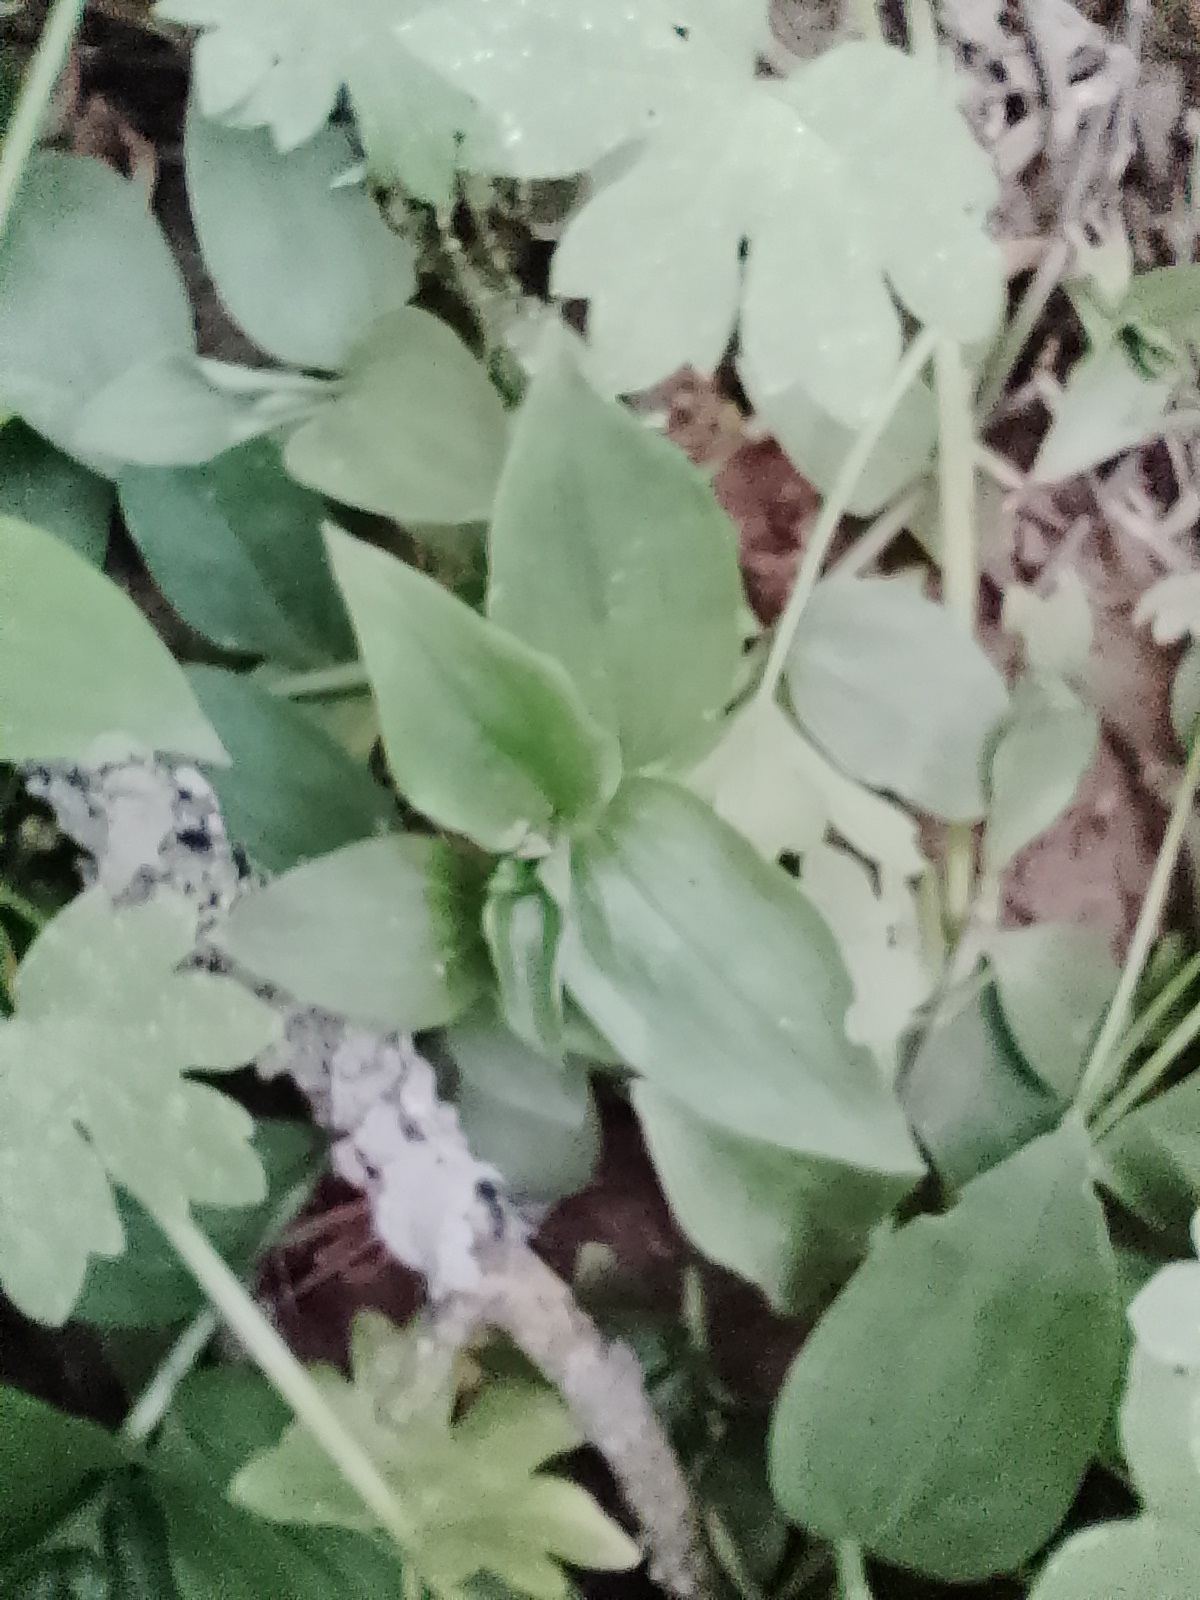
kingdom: Plantae
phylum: Tracheophyta
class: Liliopsida
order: Commelinales
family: Commelinaceae
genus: Tradescantia
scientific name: Tradescantia fluminensis
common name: Wandering-jew
